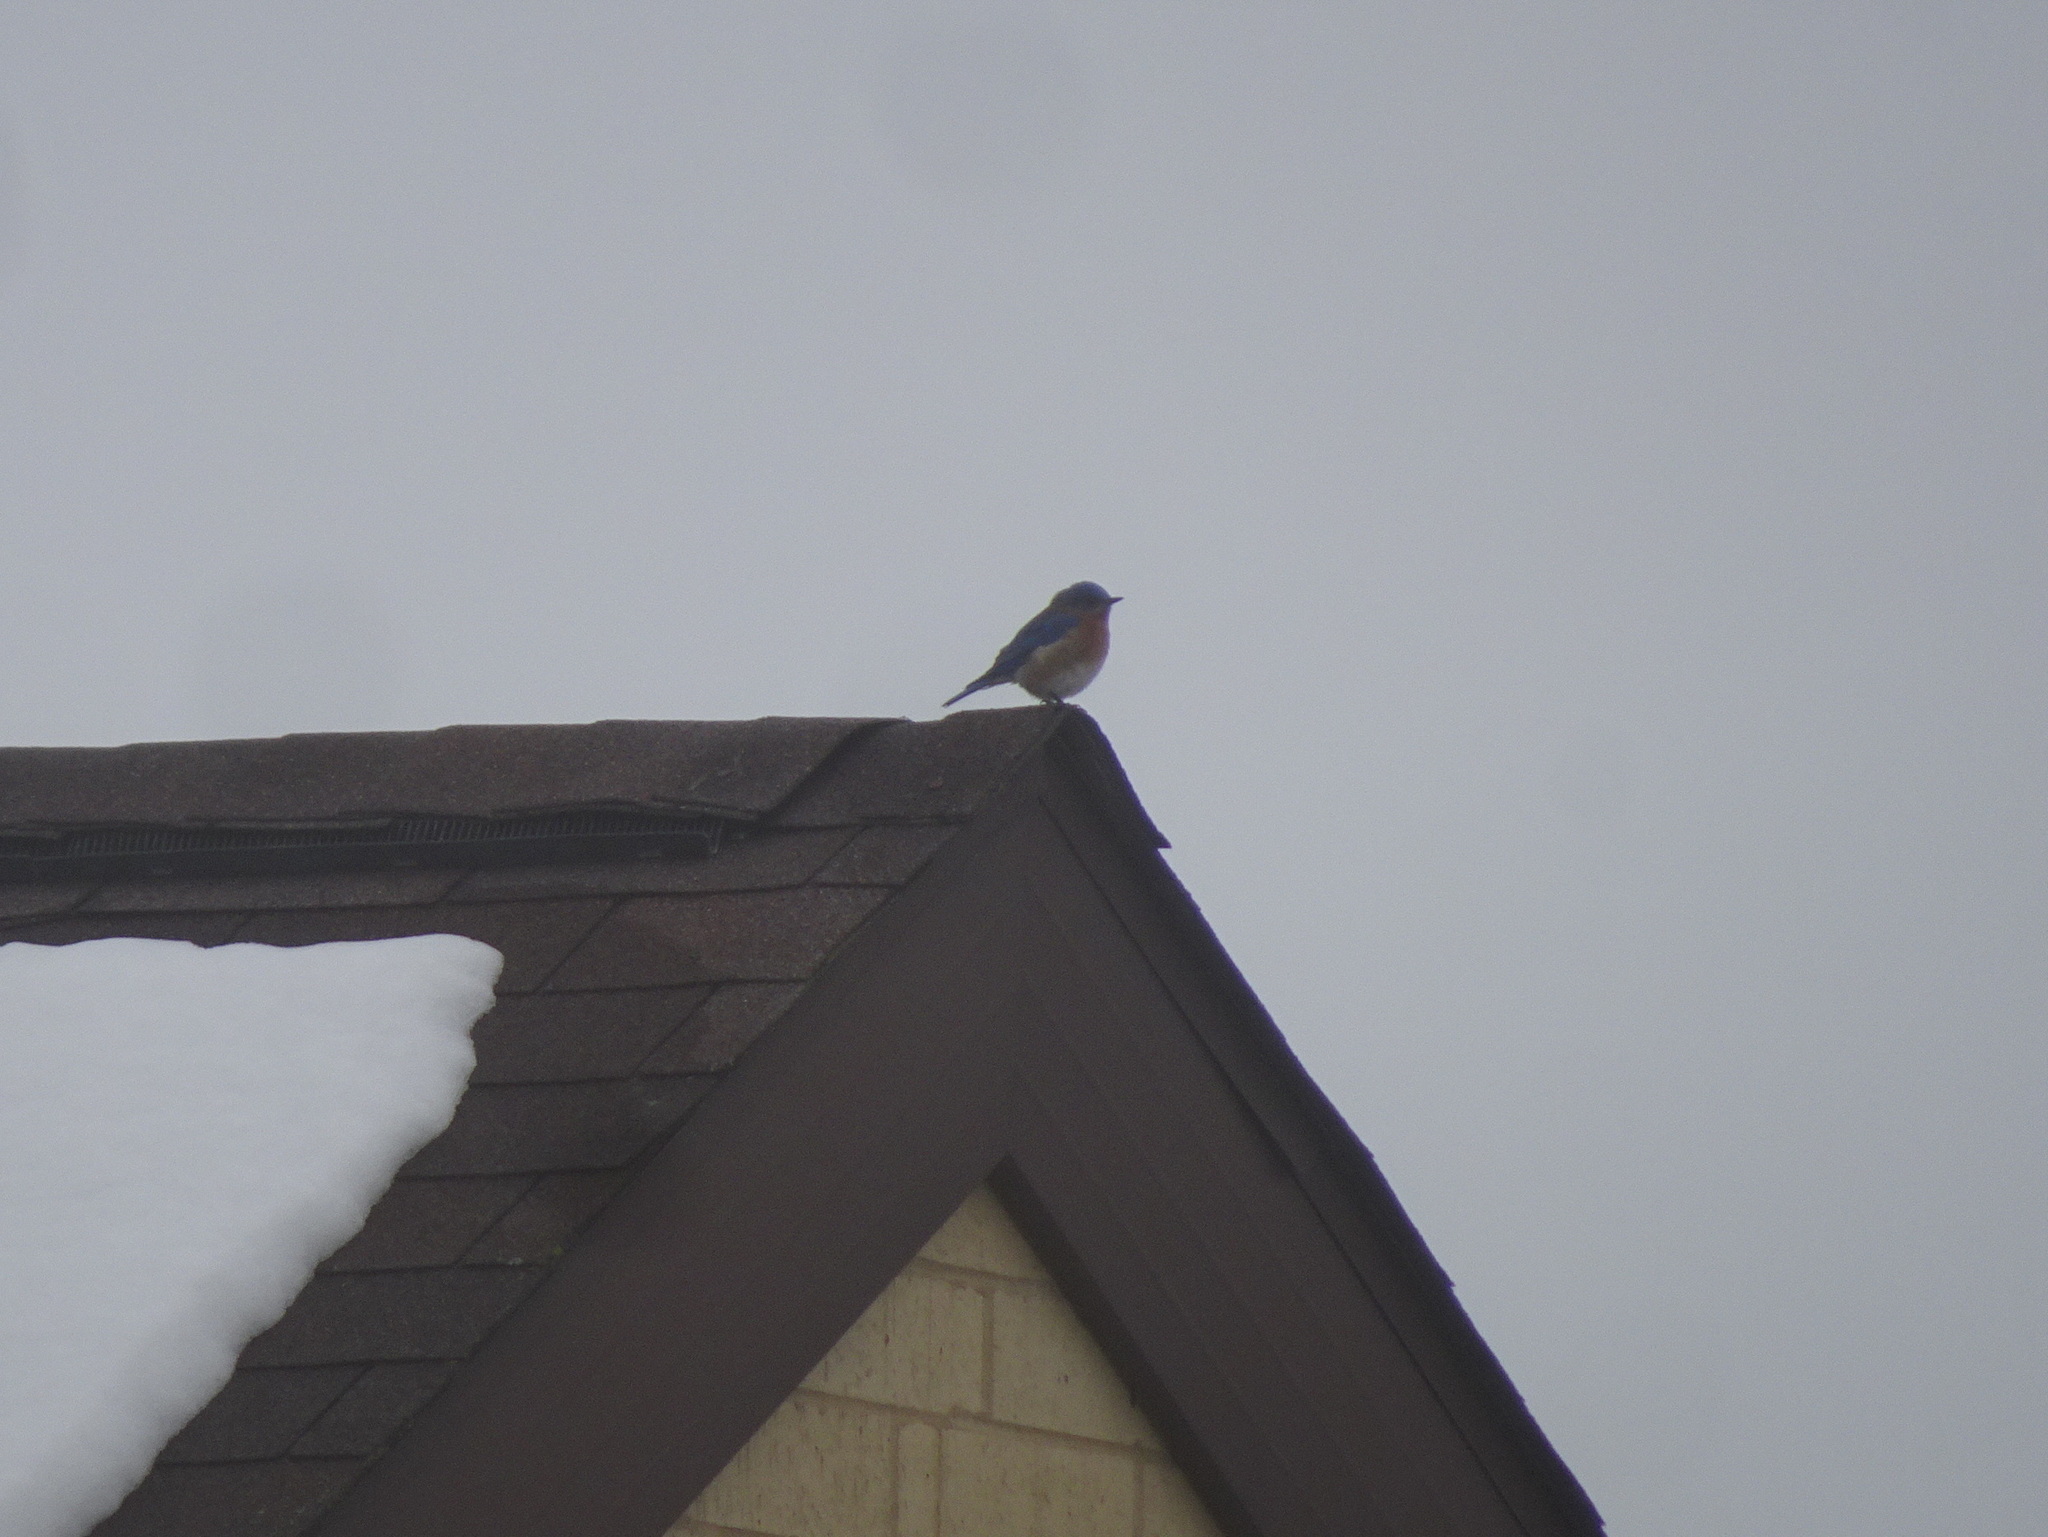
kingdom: Animalia
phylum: Chordata
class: Aves
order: Passeriformes
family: Turdidae
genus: Sialia
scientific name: Sialia sialis
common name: Eastern bluebird
